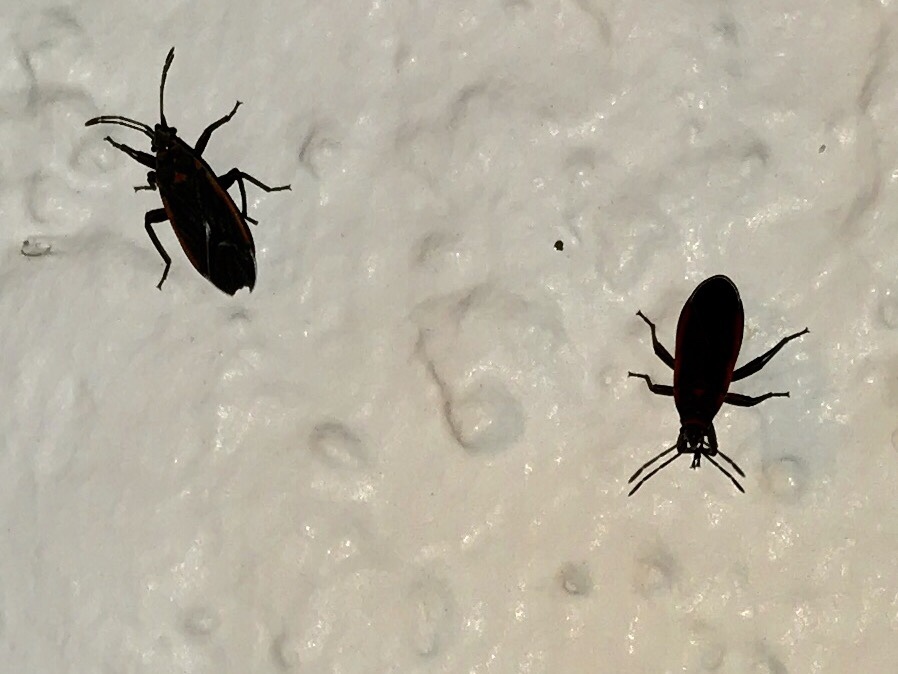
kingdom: Animalia
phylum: Arthropoda
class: Insecta
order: Hemiptera
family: Lygaeidae
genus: Melacoryphus
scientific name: Melacoryphus lateralis
